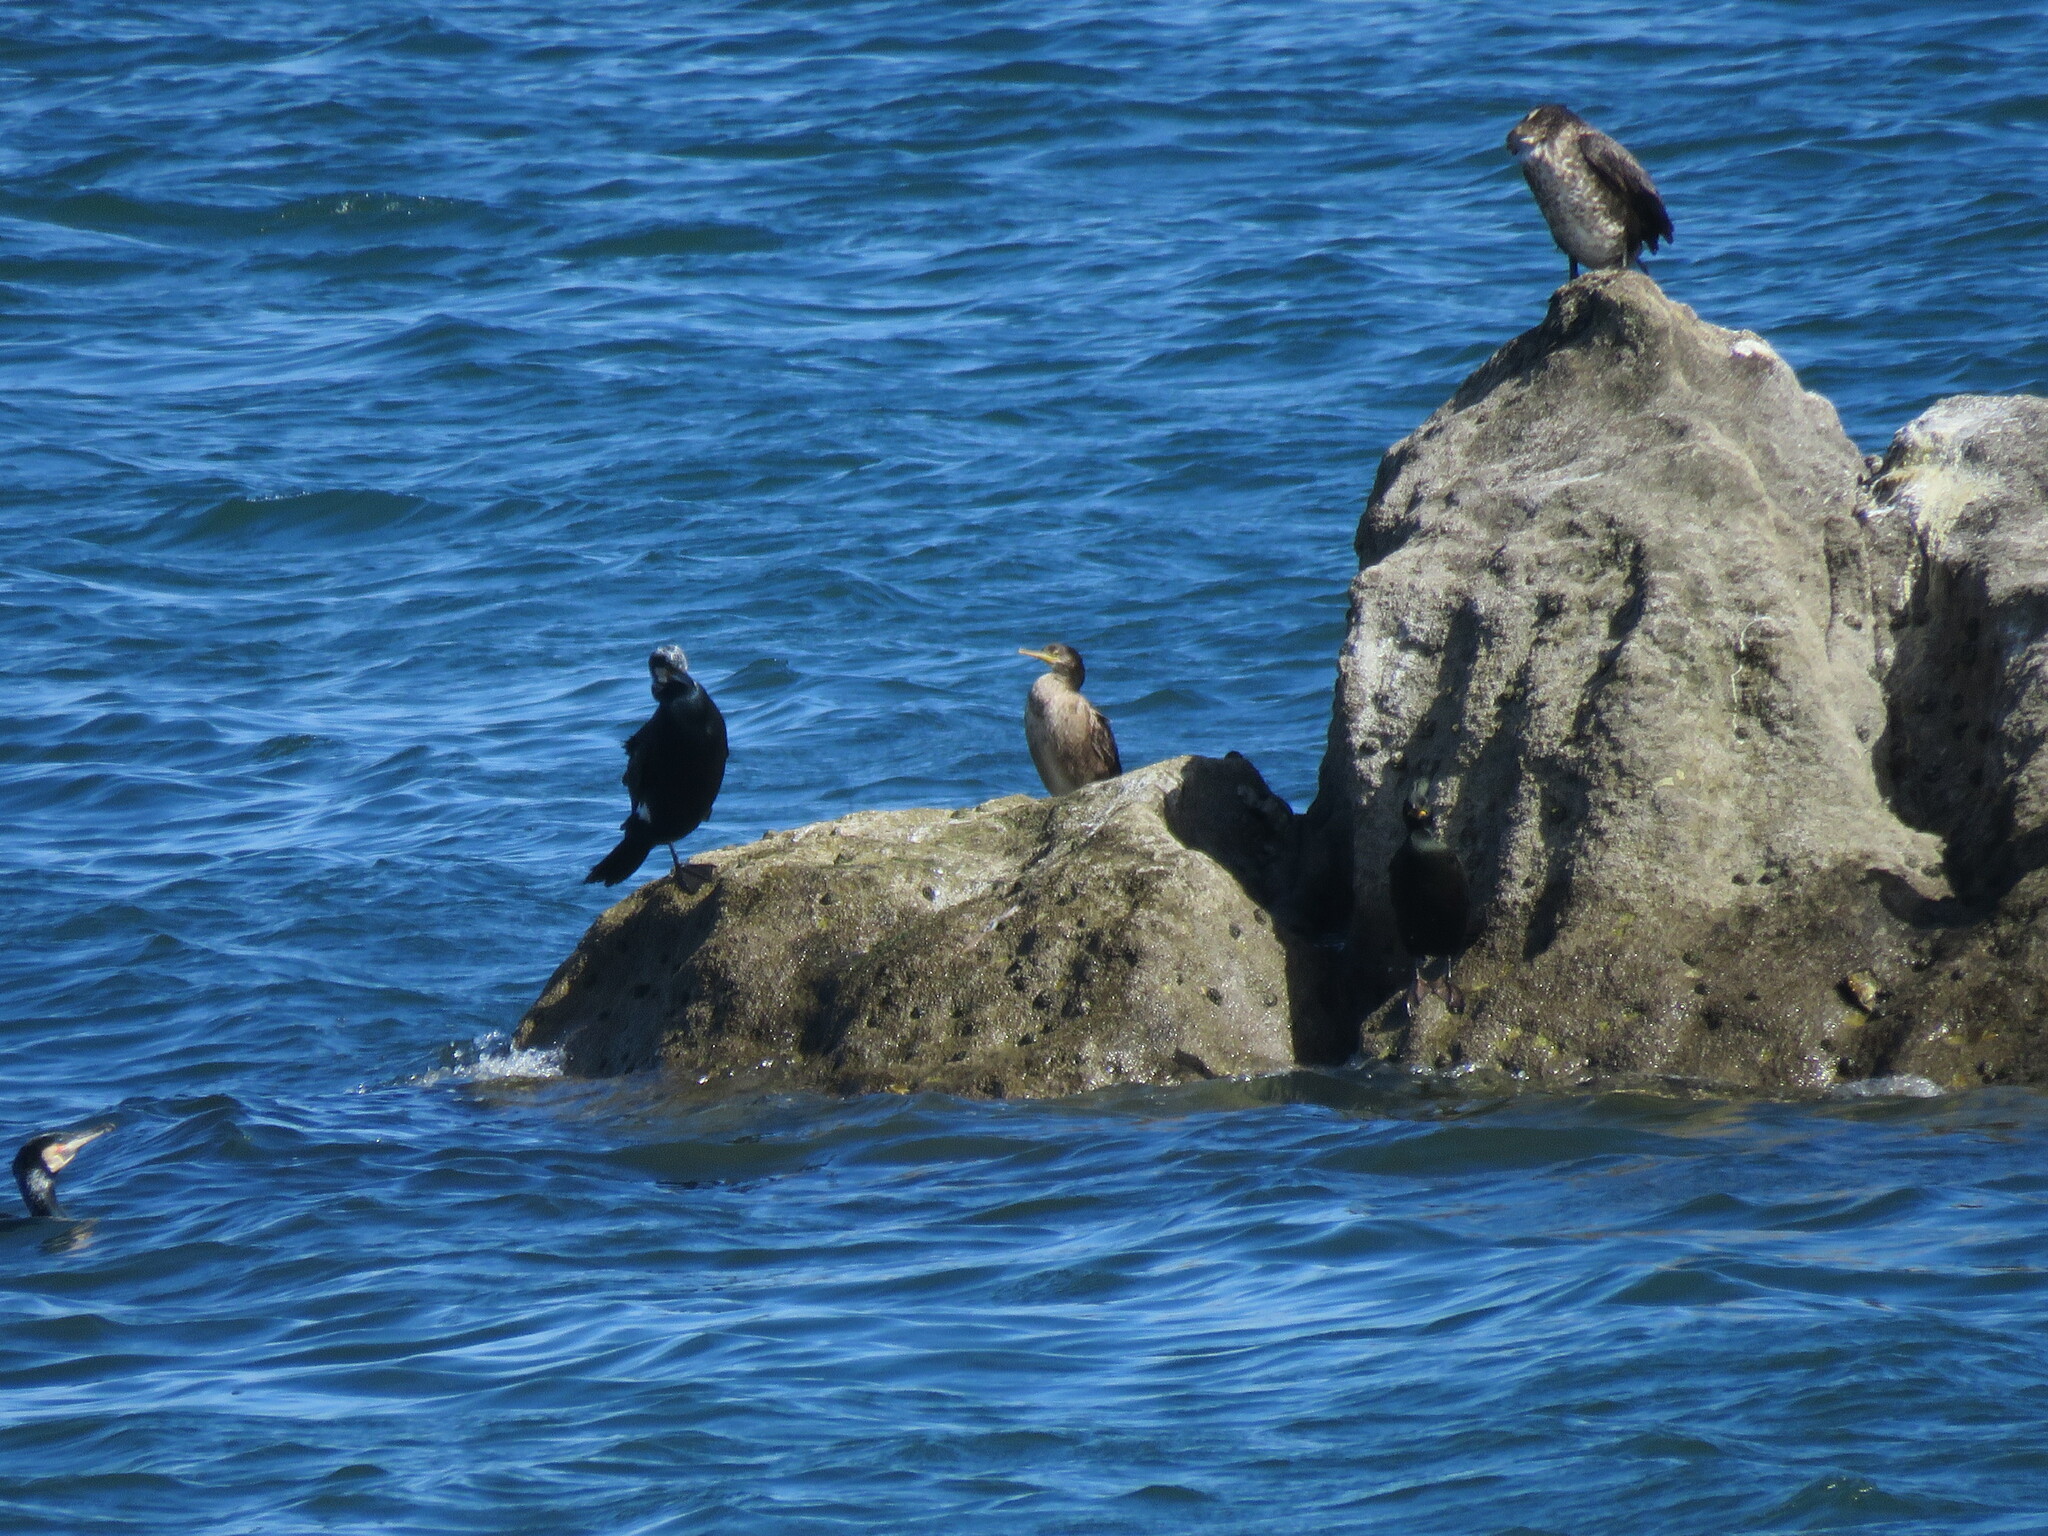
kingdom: Animalia
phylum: Chordata
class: Aves
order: Suliformes
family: Phalacrocoracidae
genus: Phalacrocorax
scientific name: Phalacrocorax carbo
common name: Great cormorant
